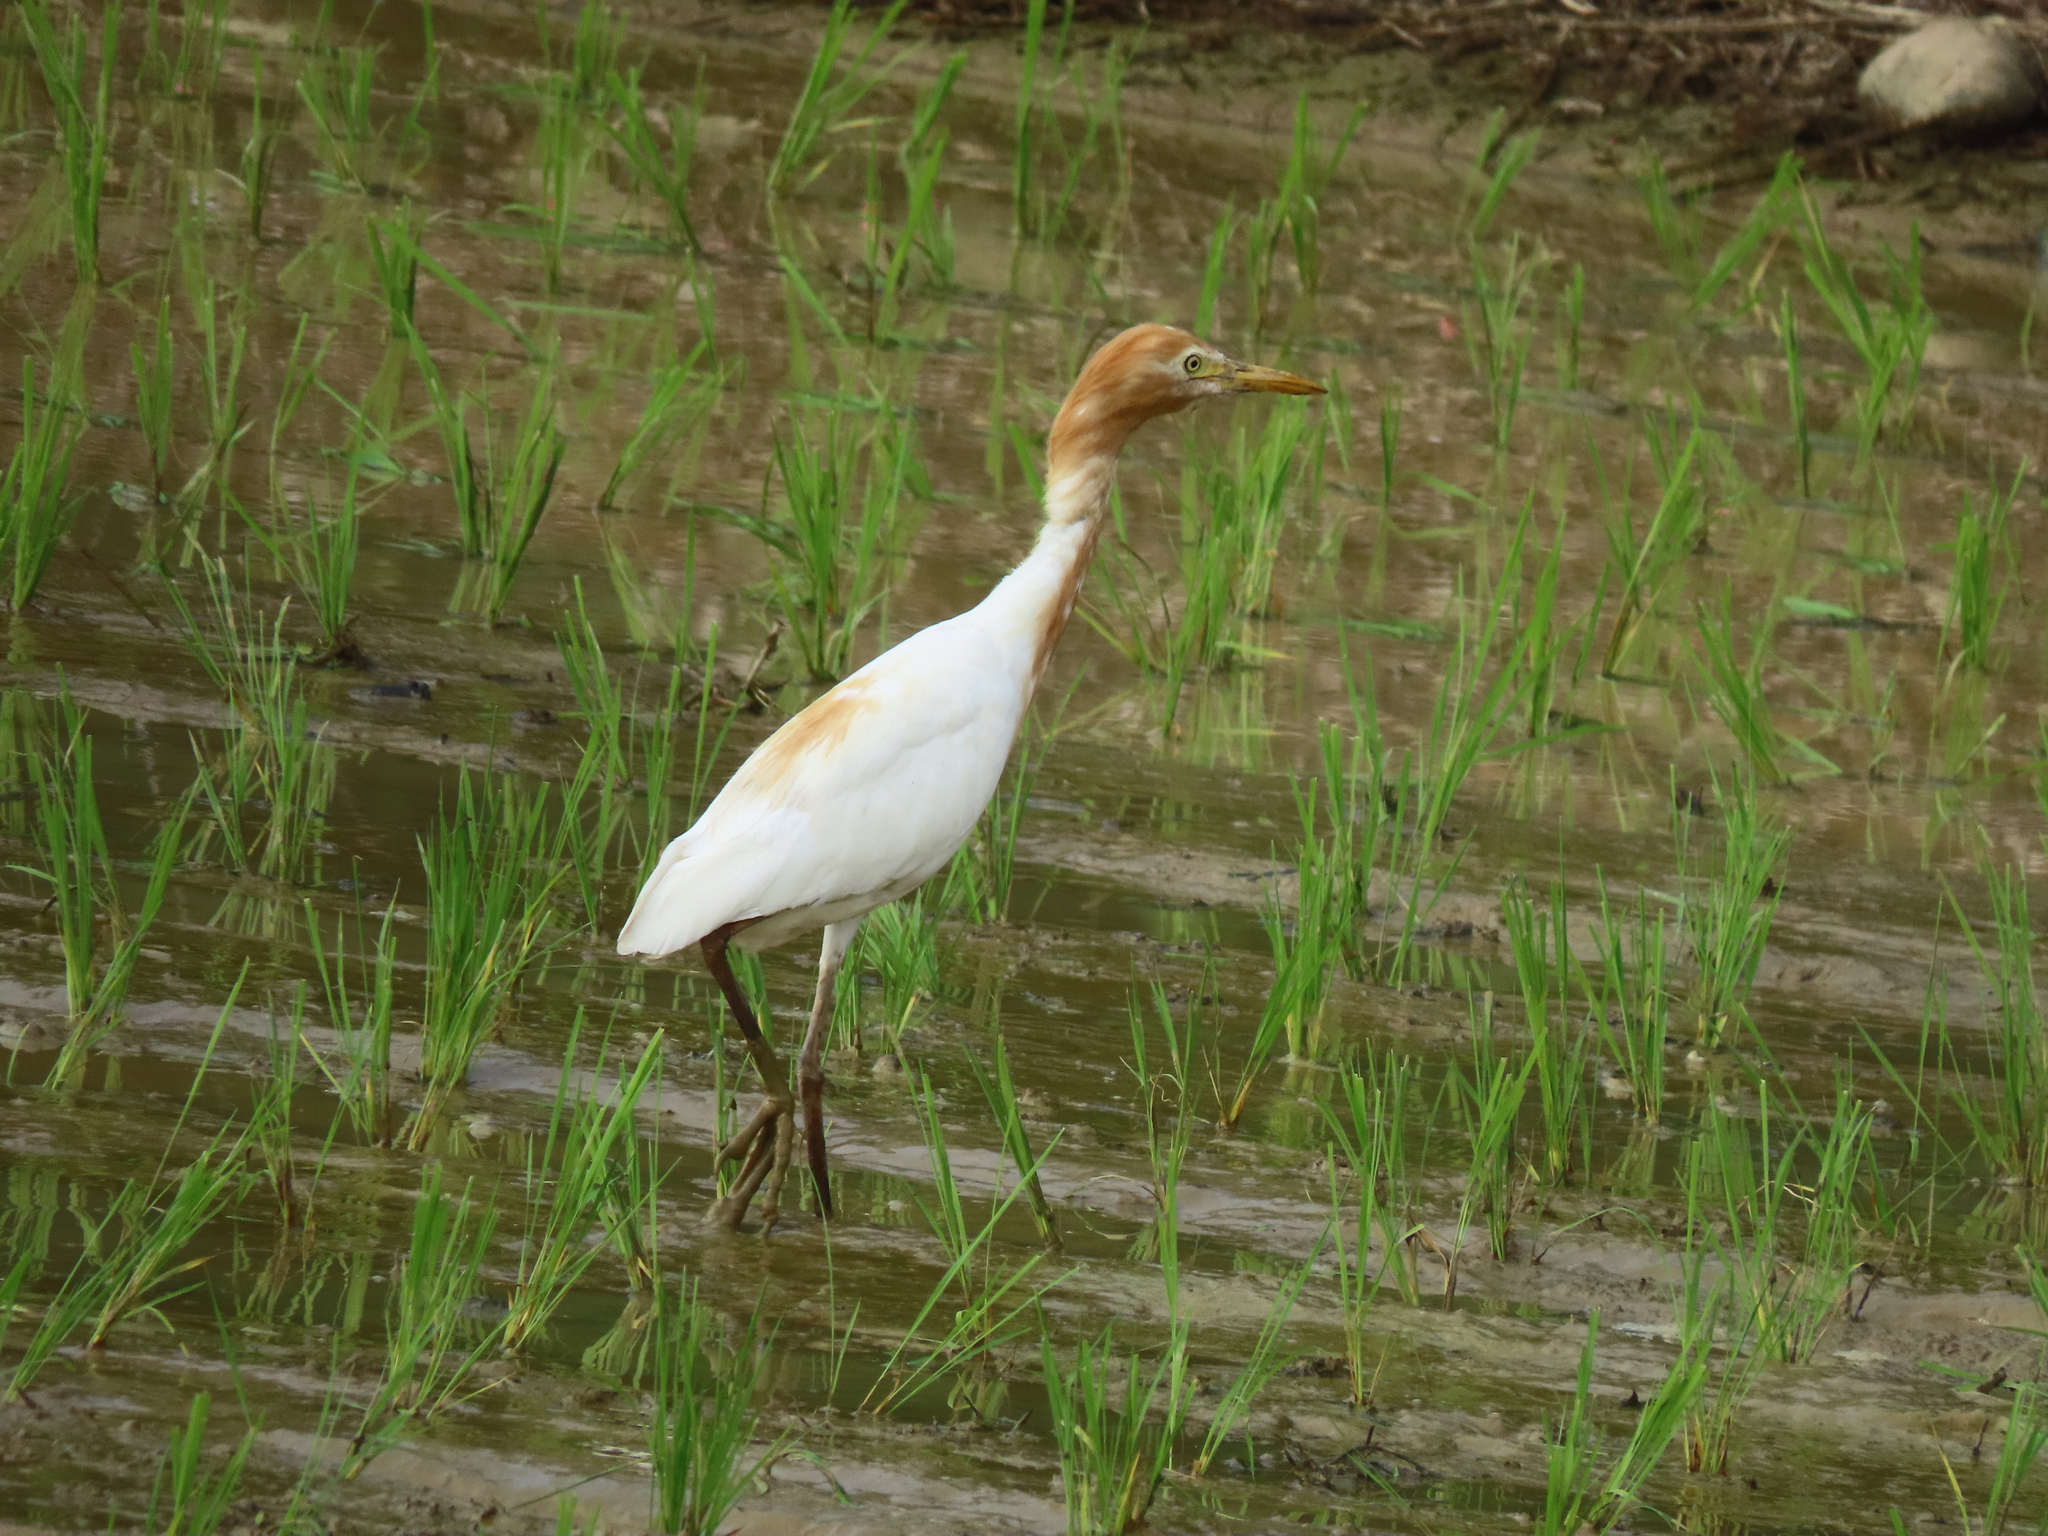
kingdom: Animalia
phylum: Chordata
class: Aves
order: Pelecaniformes
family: Ardeidae
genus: Bubulcus
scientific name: Bubulcus coromandus
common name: Eastern cattle egret
